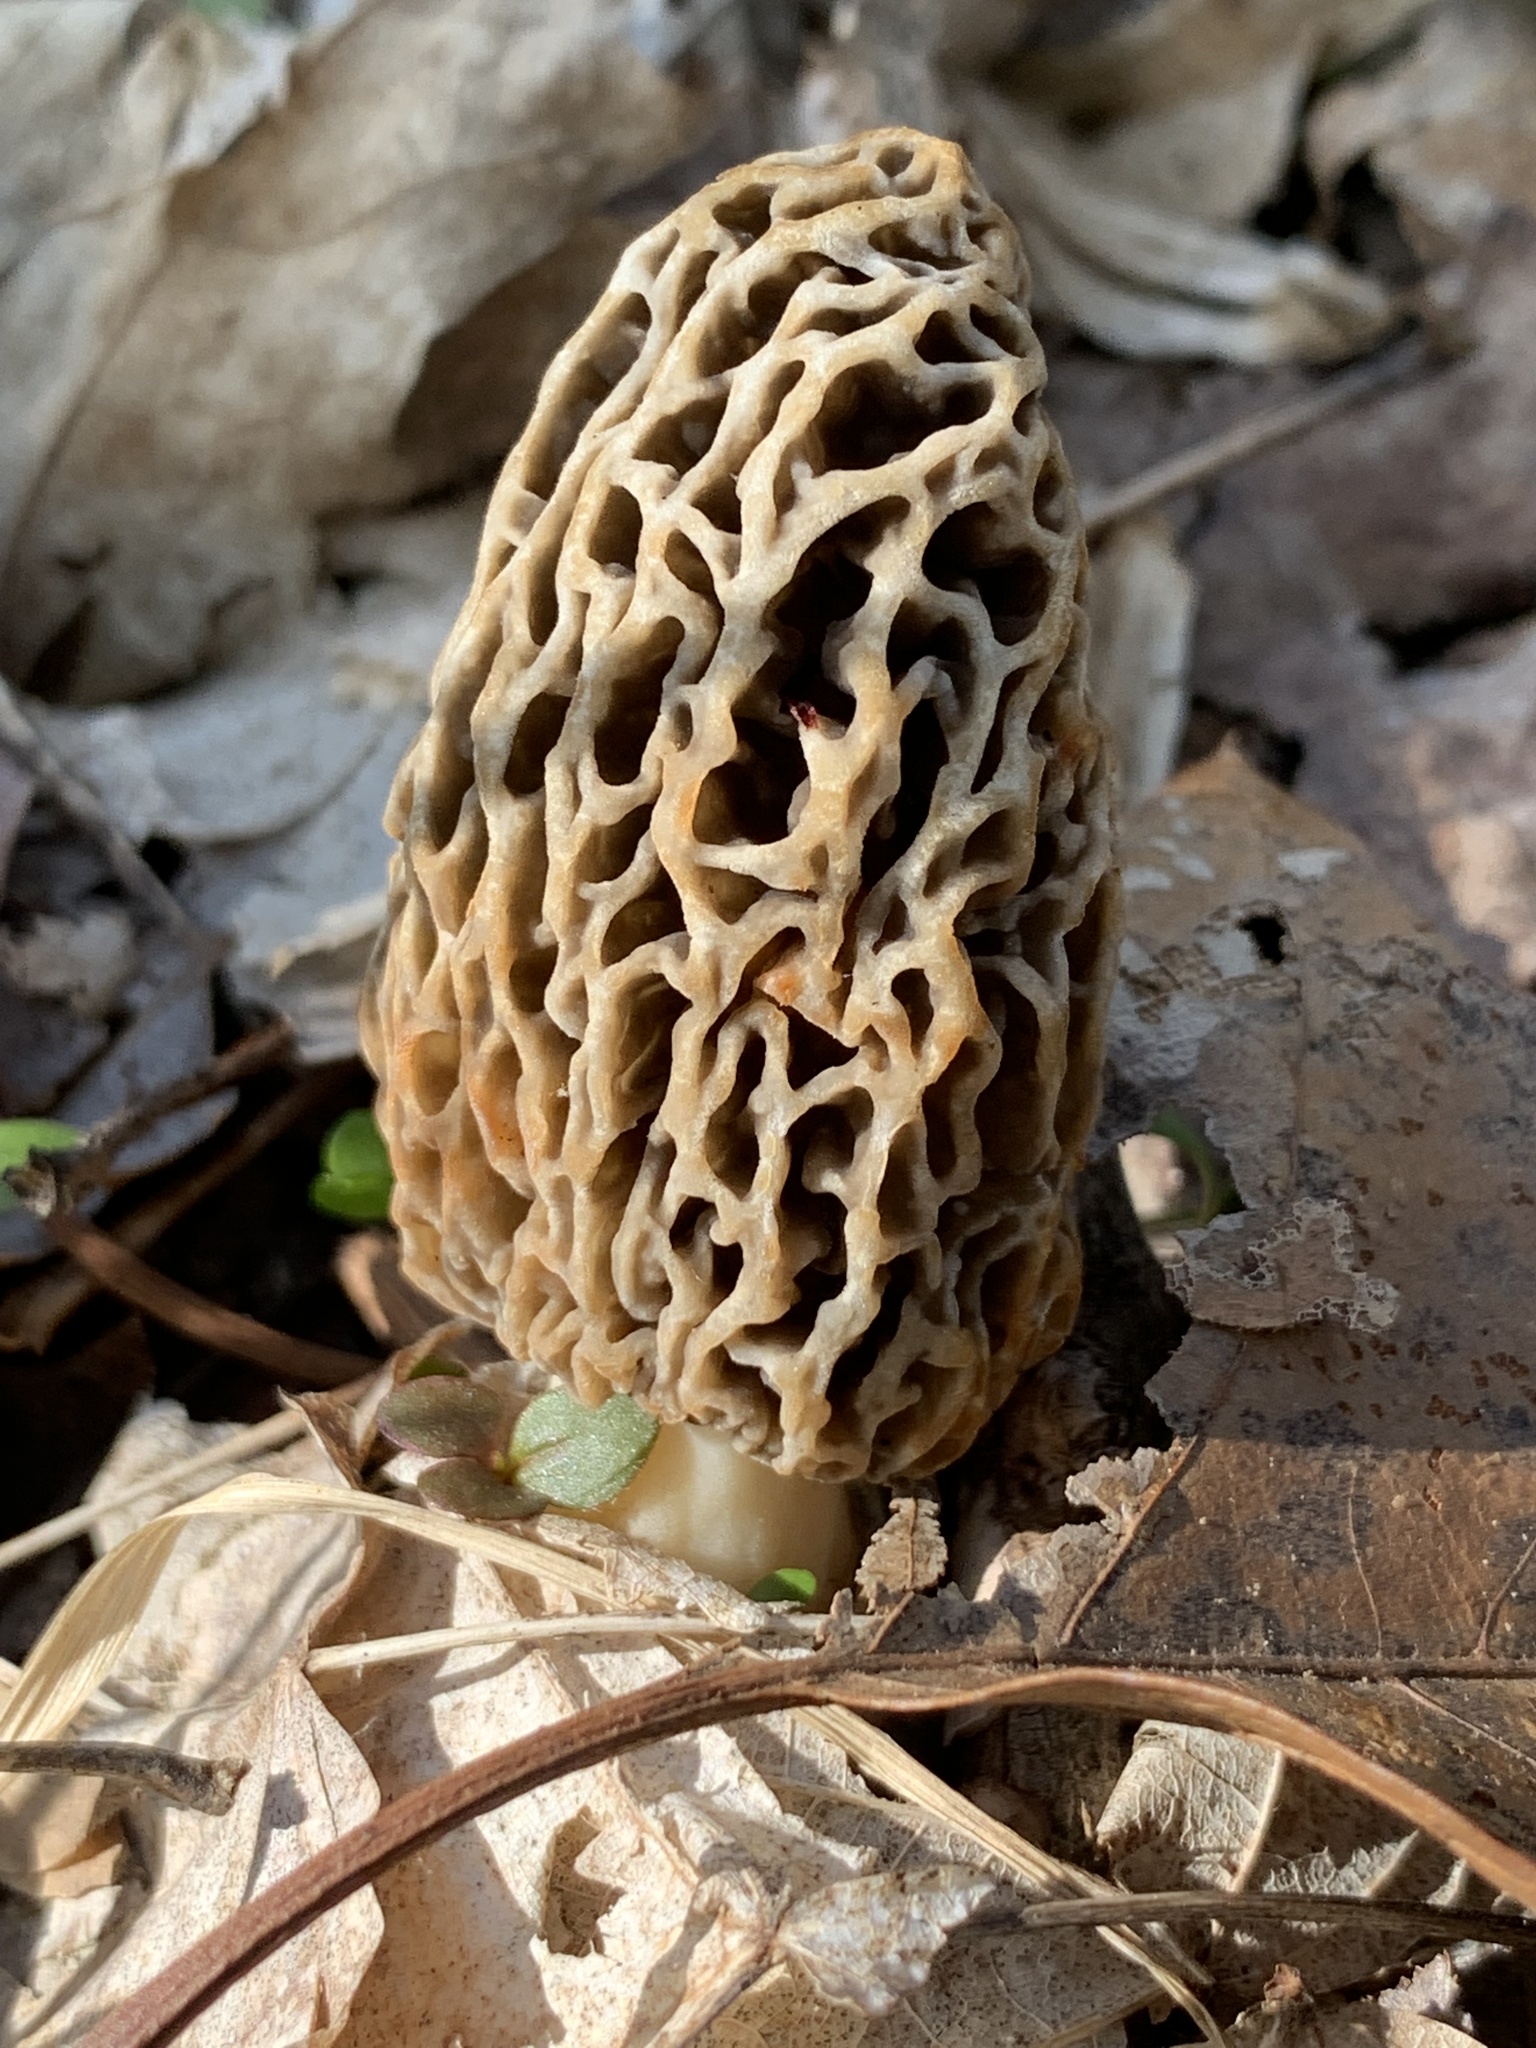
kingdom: Fungi
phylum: Ascomycota
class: Pezizomycetes
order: Pezizales
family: Morchellaceae
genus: Morchella
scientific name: Morchella americana
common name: White morel
